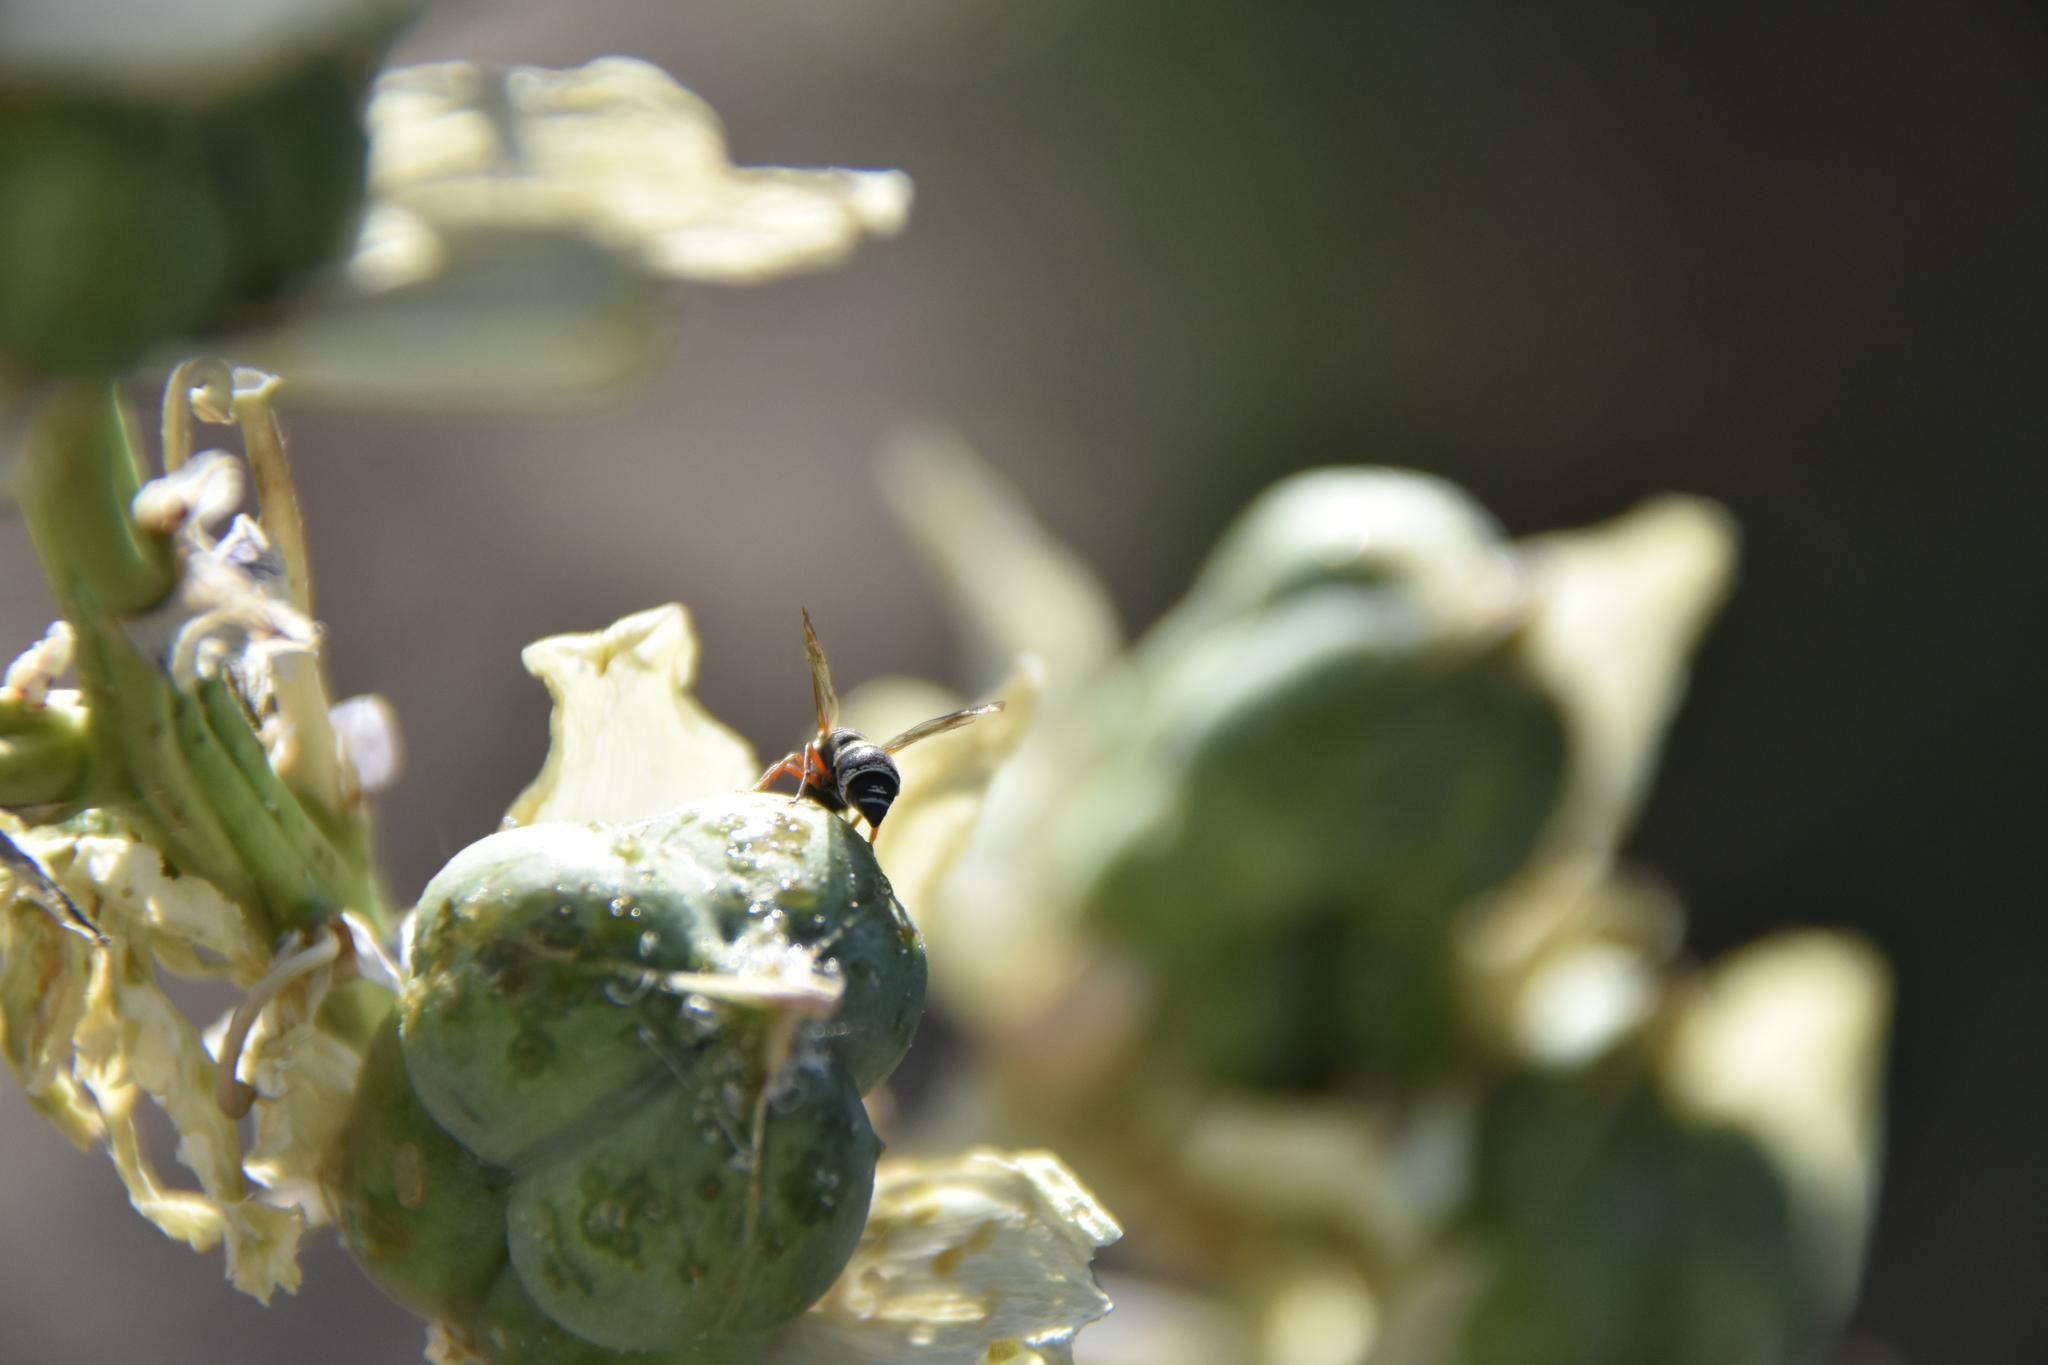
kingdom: Animalia
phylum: Arthropoda
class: Insecta
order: Hymenoptera
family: Eumenidae
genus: Parancistrocerus
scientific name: Parancistrocerus minimoferus
